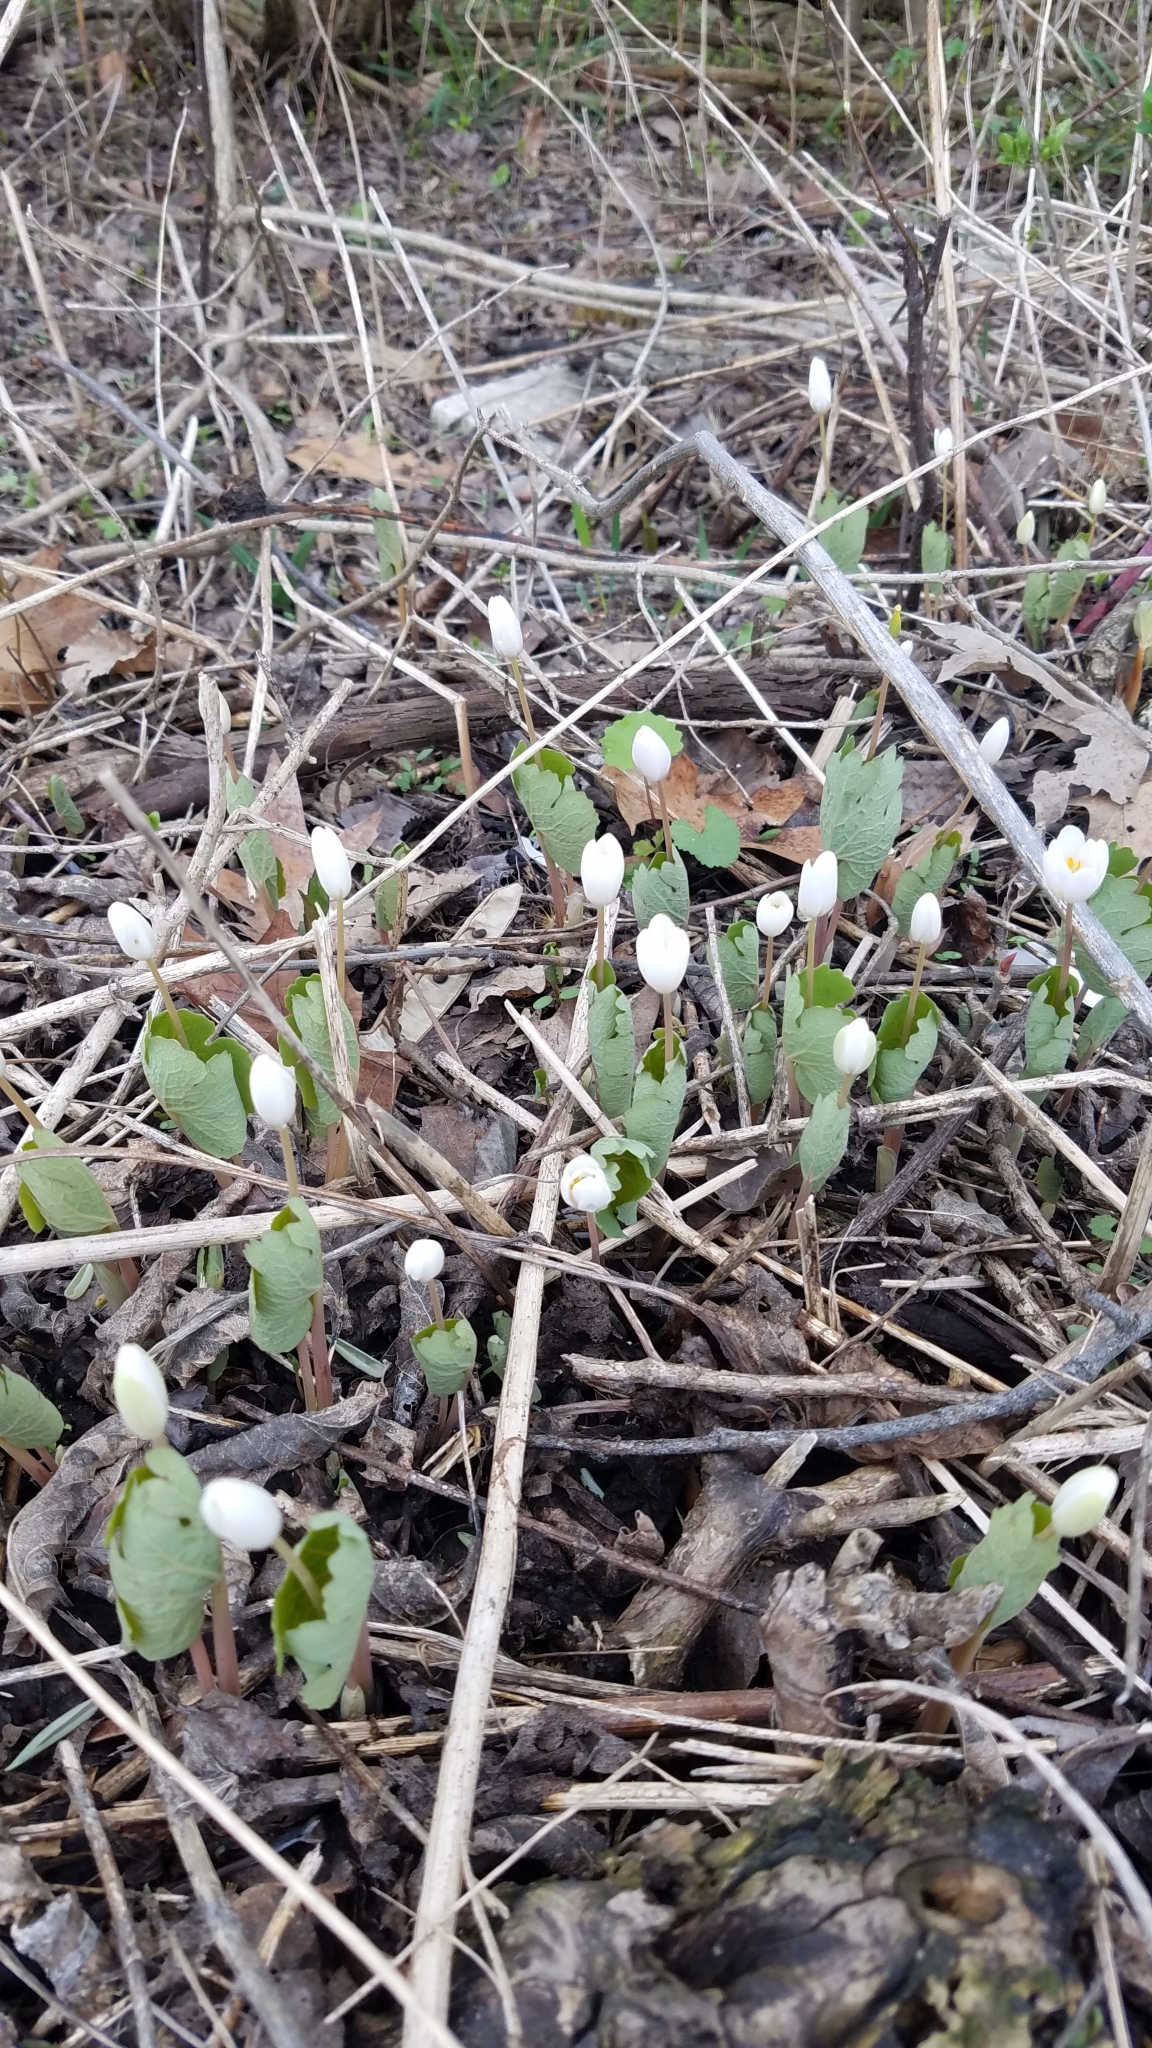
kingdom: Plantae
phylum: Tracheophyta
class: Magnoliopsida
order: Ranunculales
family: Papaveraceae
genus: Sanguinaria
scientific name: Sanguinaria canadensis
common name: Bloodroot
